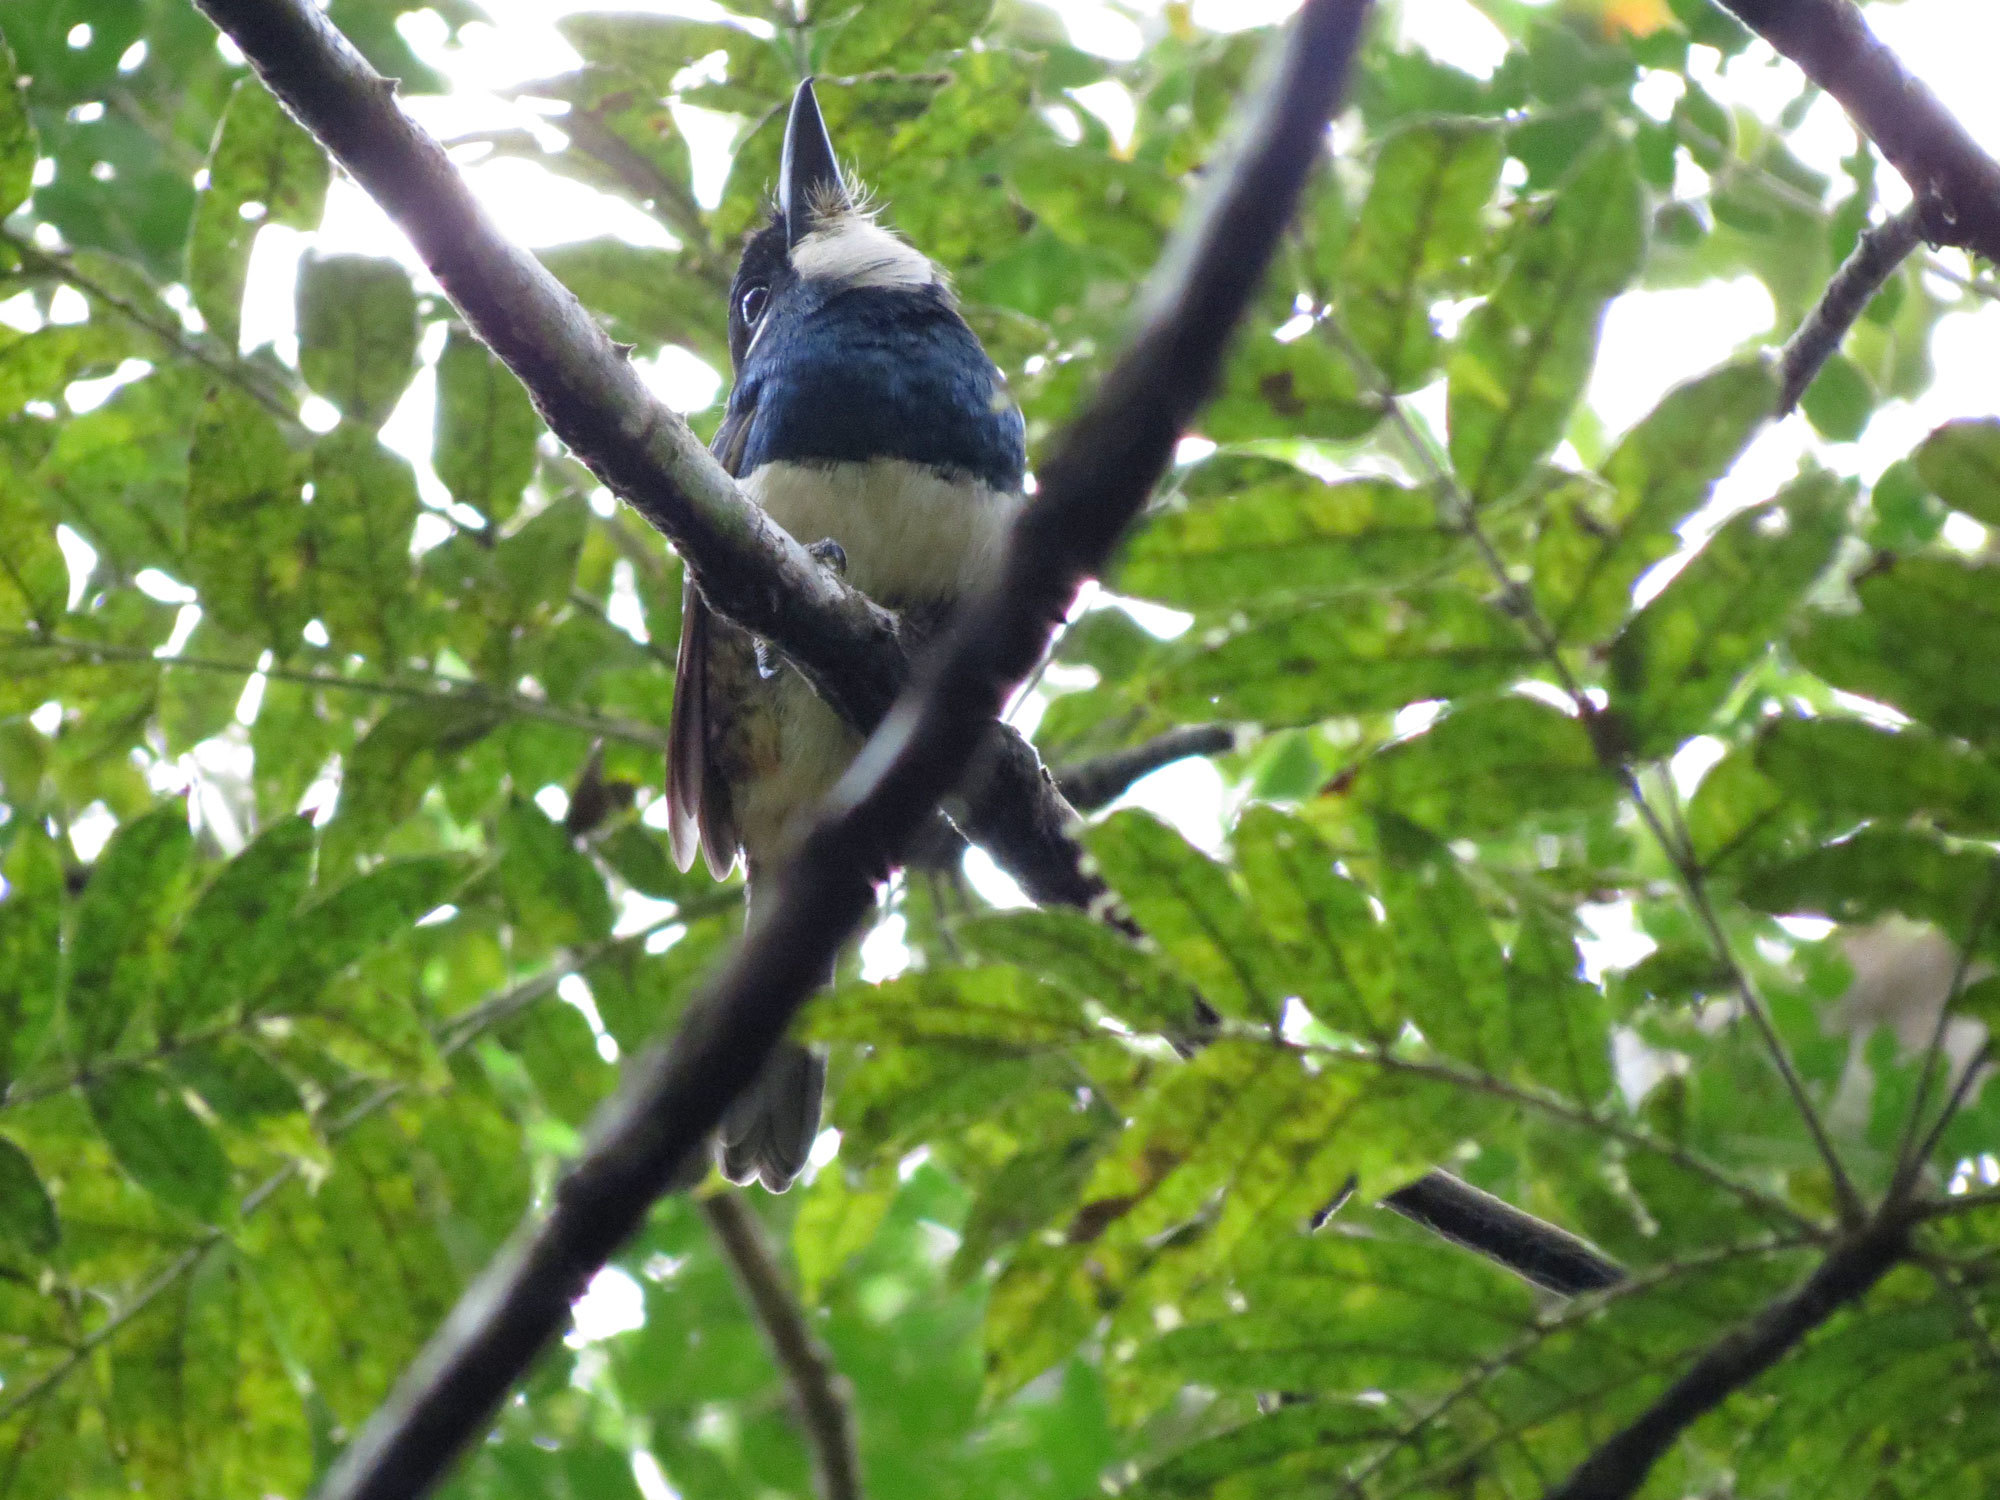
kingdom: Animalia
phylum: Chordata
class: Aves
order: Piciformes
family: Bucconidae
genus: Notharchus
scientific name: Notharchus pectoralis
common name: Black-breasted puffbird
